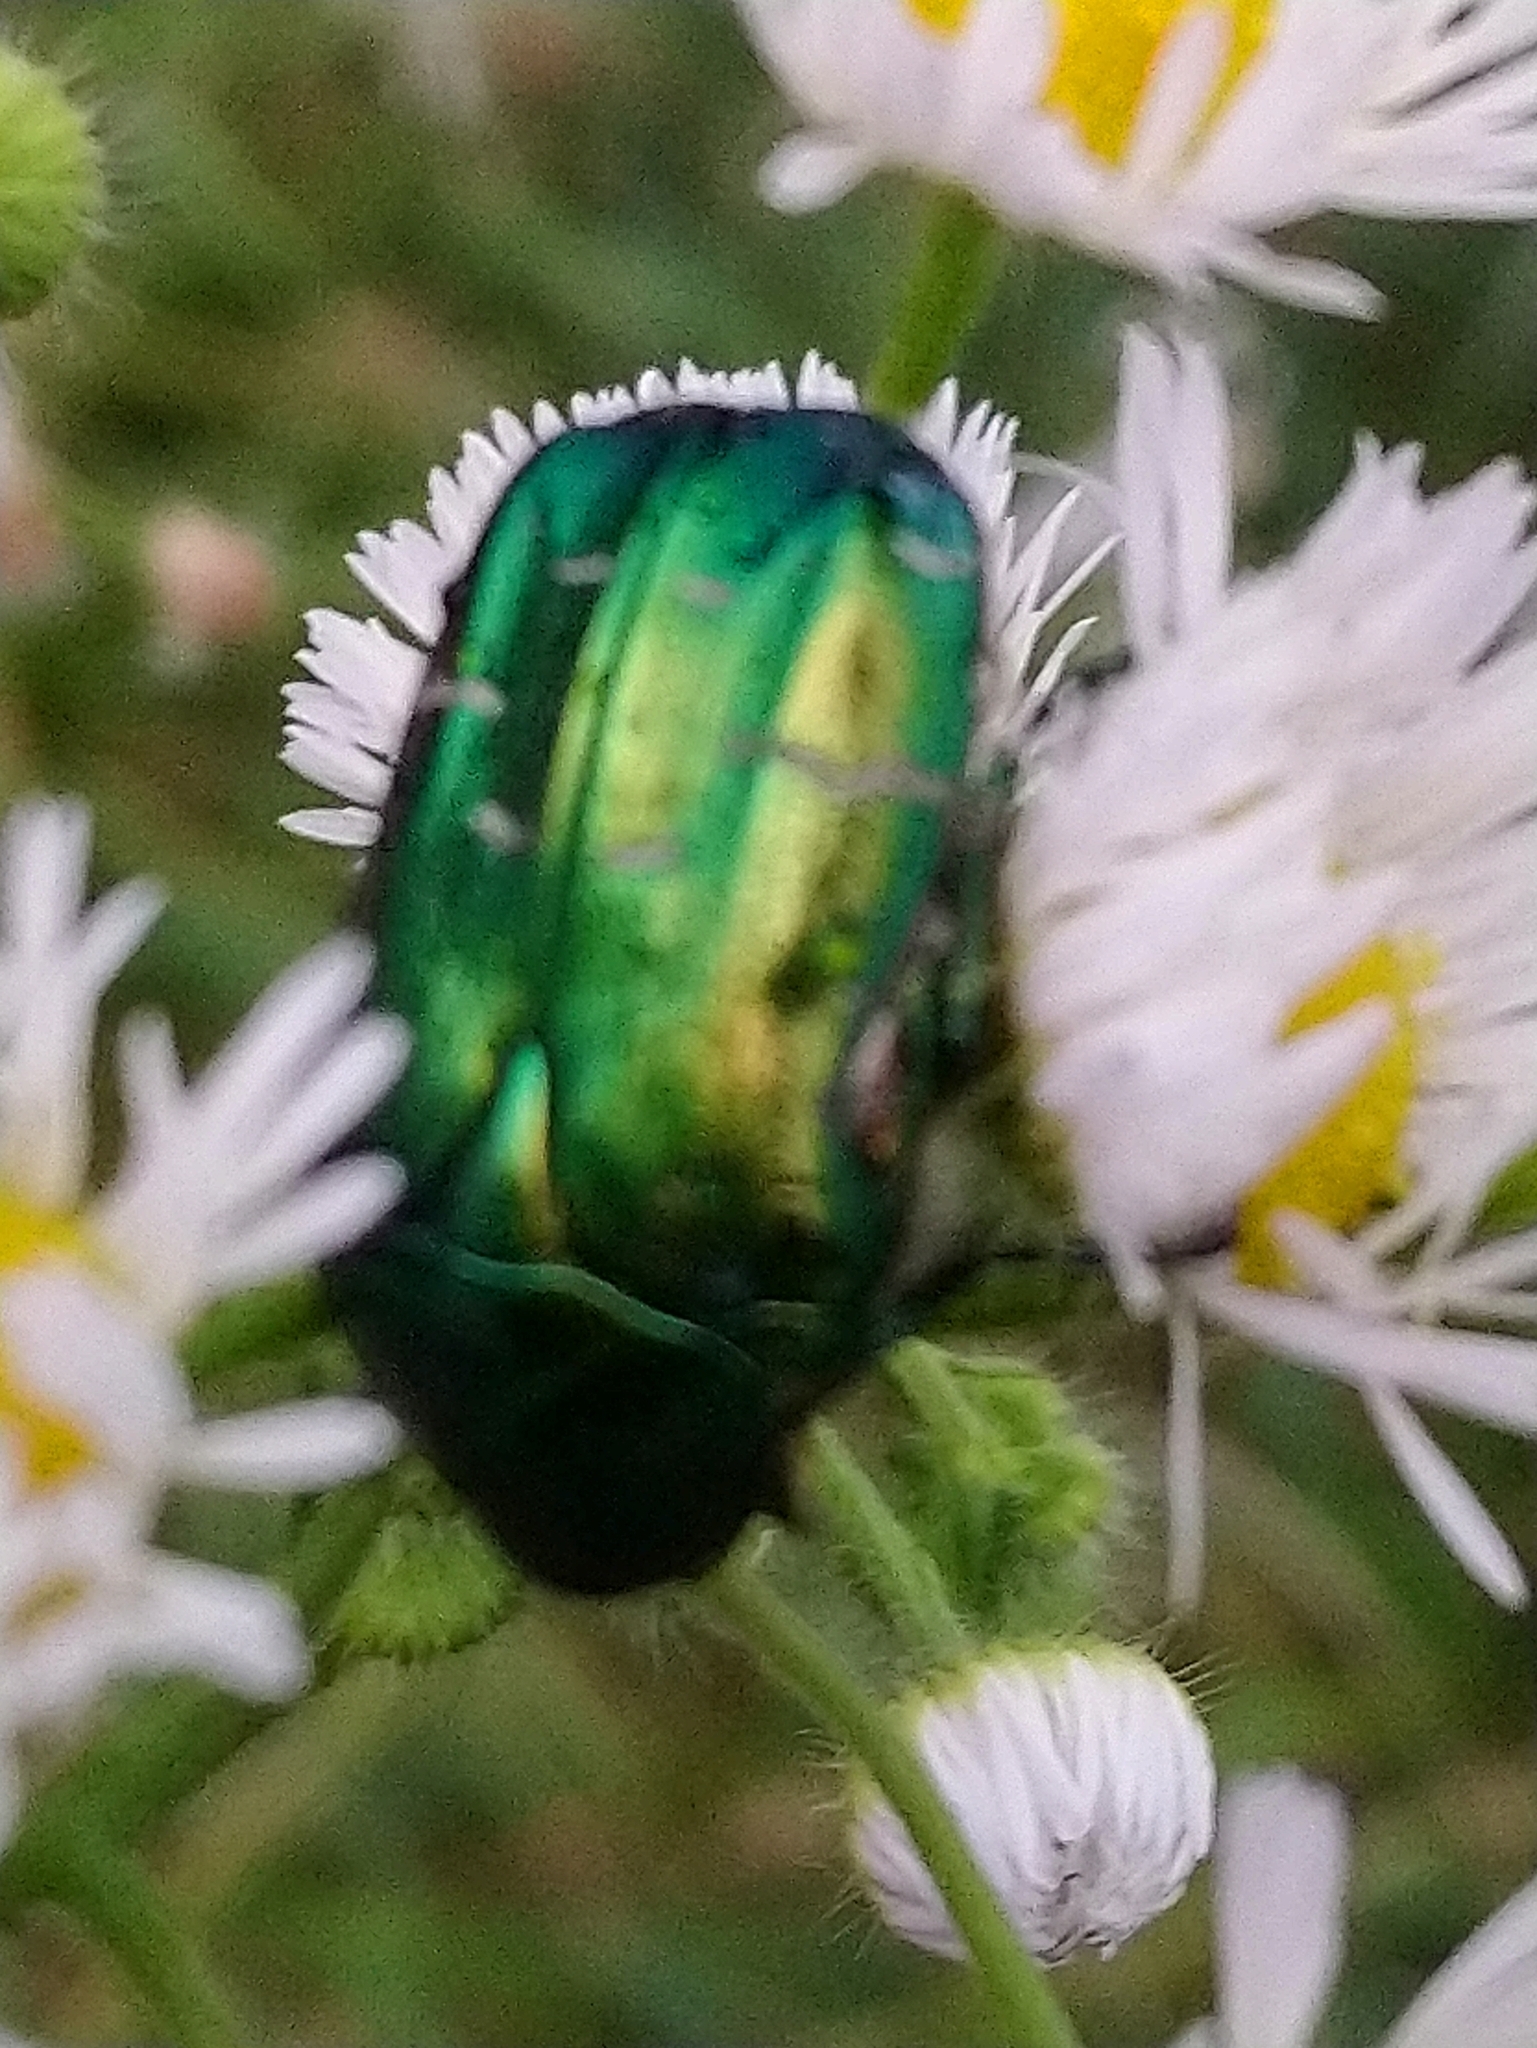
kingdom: Animalia
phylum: Arthropoda
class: Insecta
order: Coleoptera
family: Scarabaeidae
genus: Cetonia
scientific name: Cetonia aurata
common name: Rose chafer
